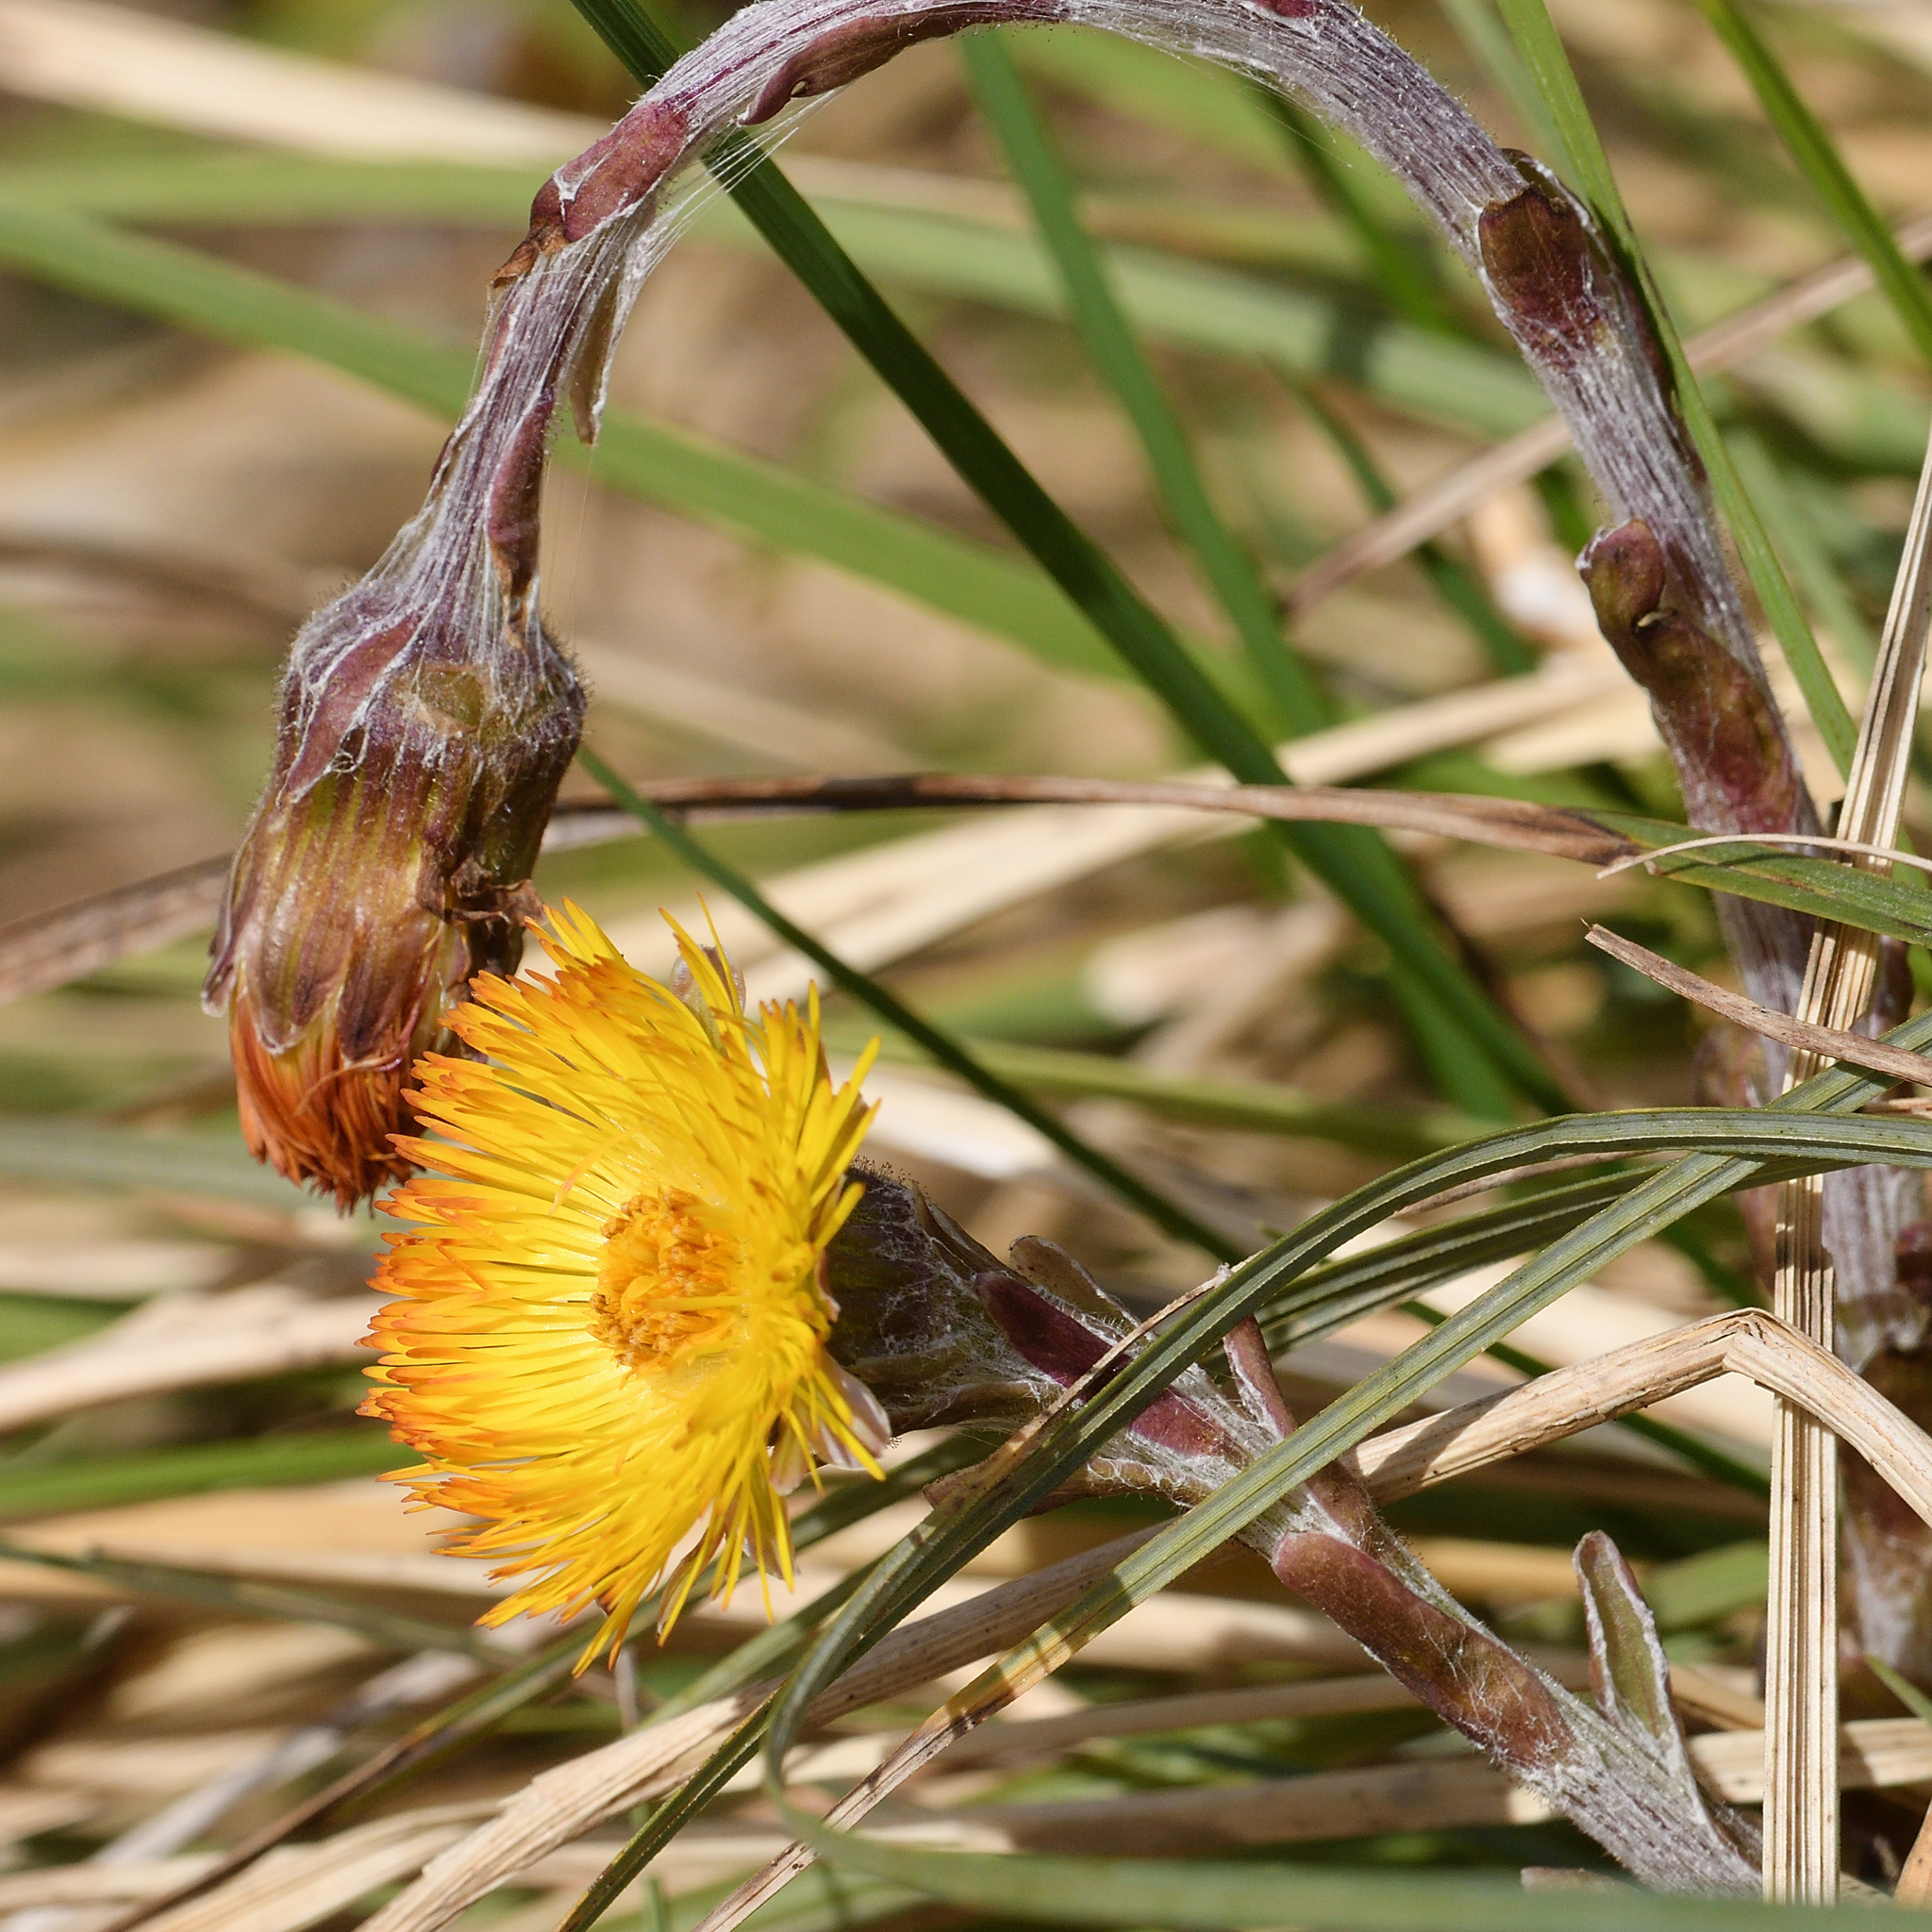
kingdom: Plantae
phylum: Tracheophyta
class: Magnoliopsida
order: Asterales
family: Asteraceae
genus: Tussilago
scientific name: Tussilago farfara
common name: Coltsfoot
